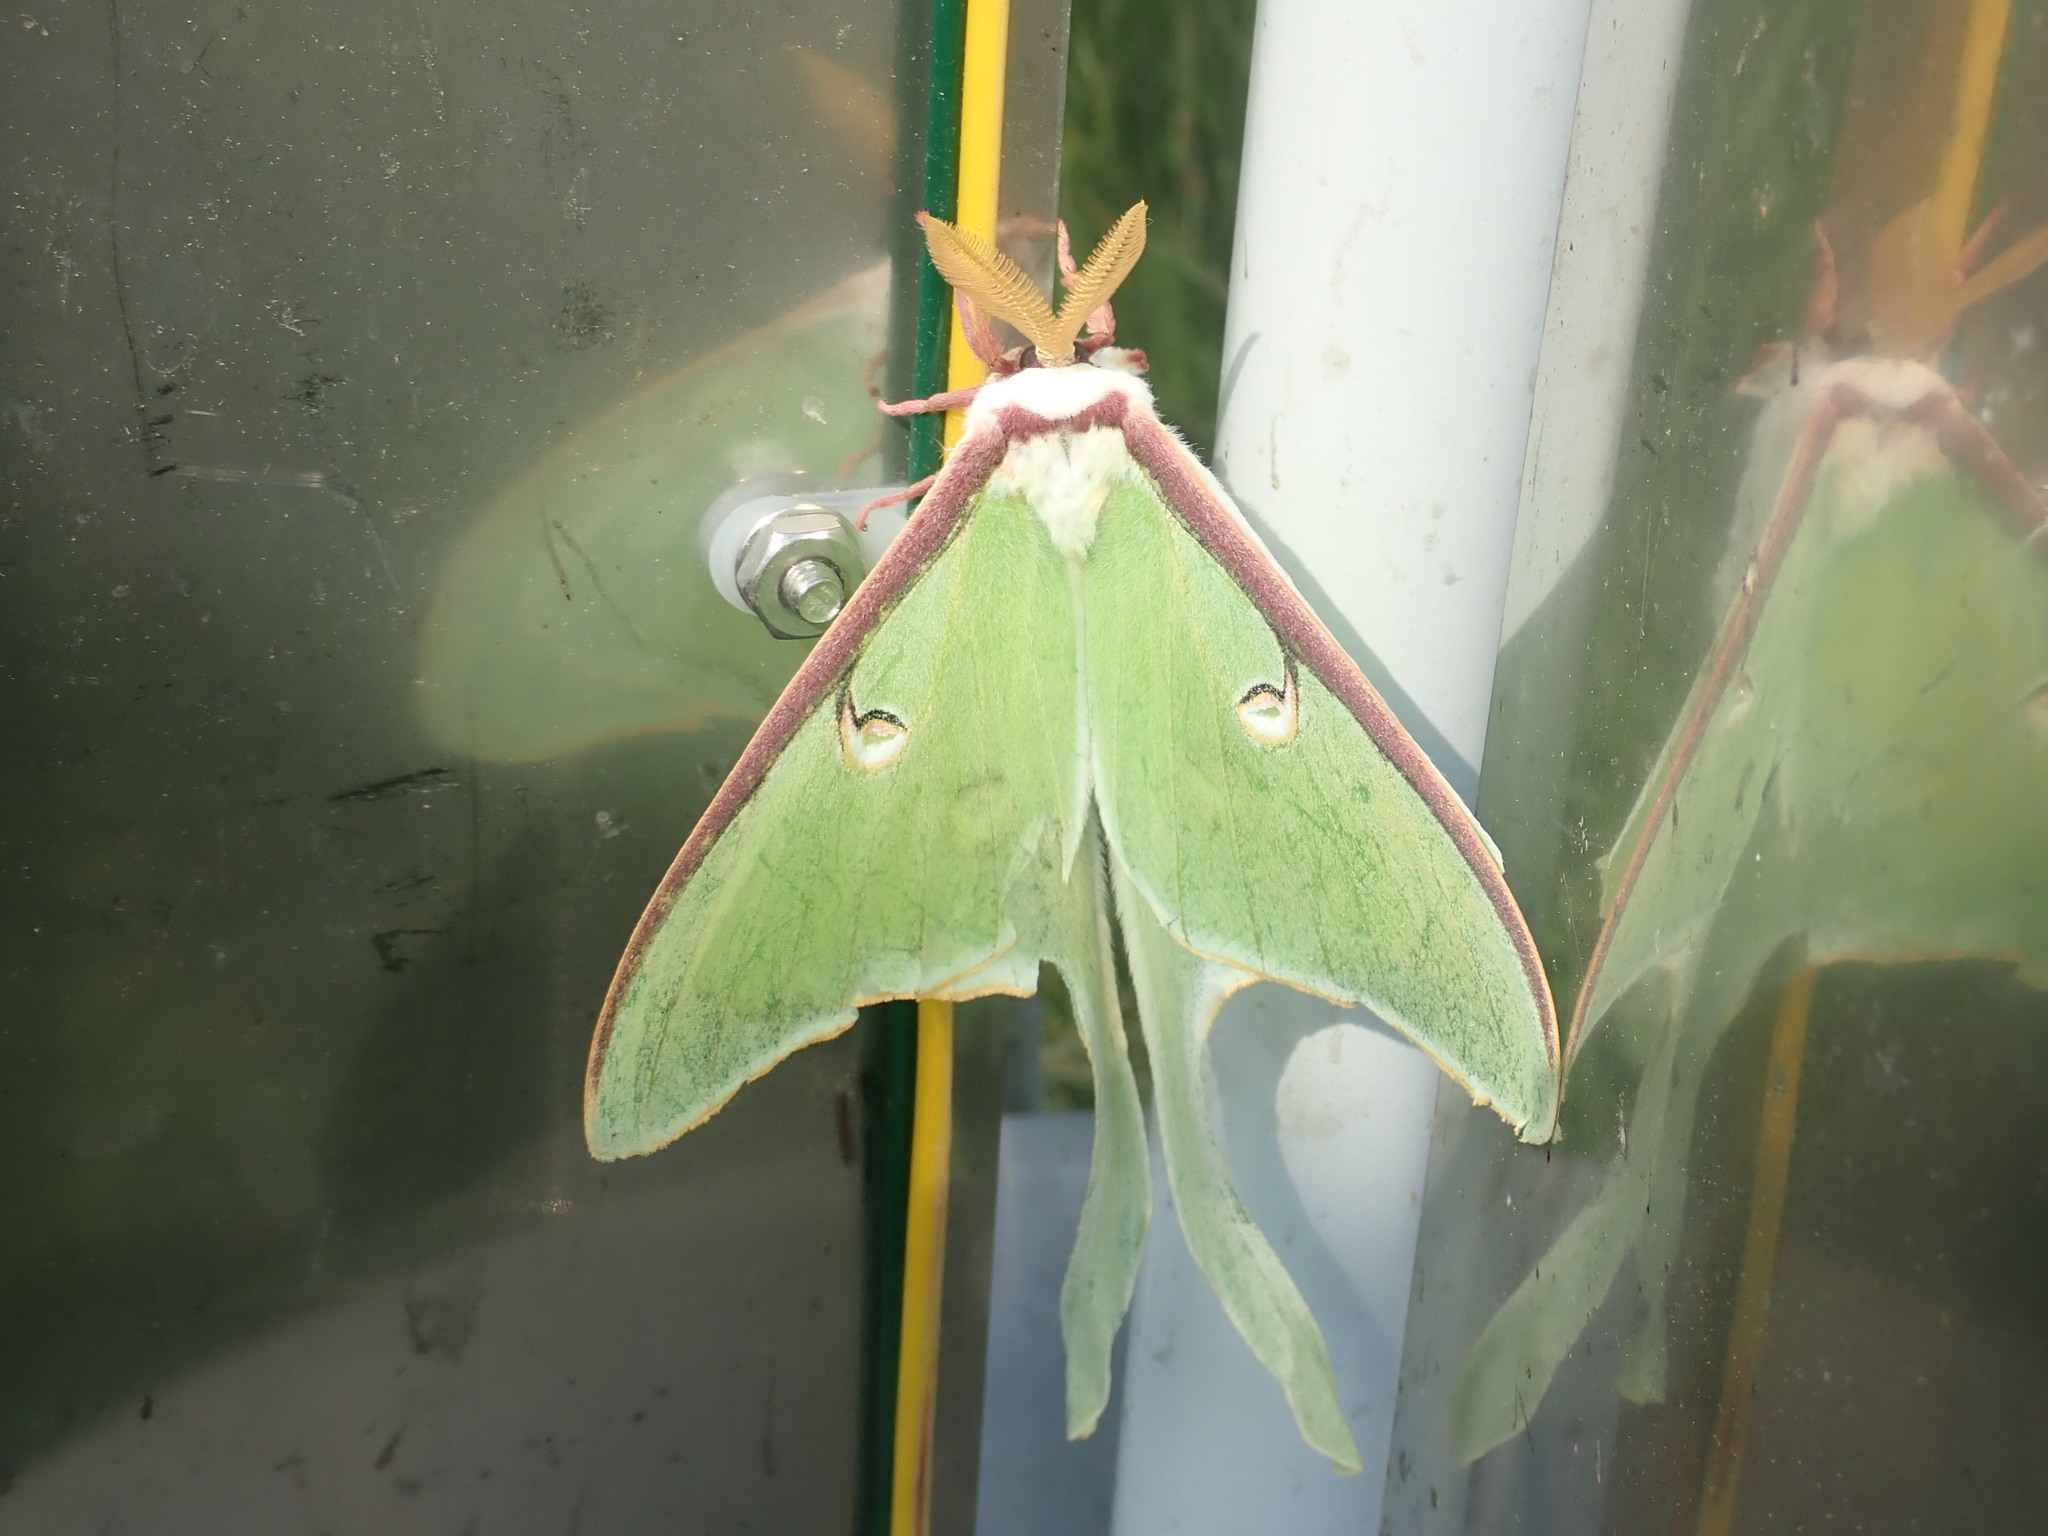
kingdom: Animalia
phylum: Arthropoda
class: Insecta
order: Lepidoptera
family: Saturniidae
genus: Actias
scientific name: Actias luna
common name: Luna moth
